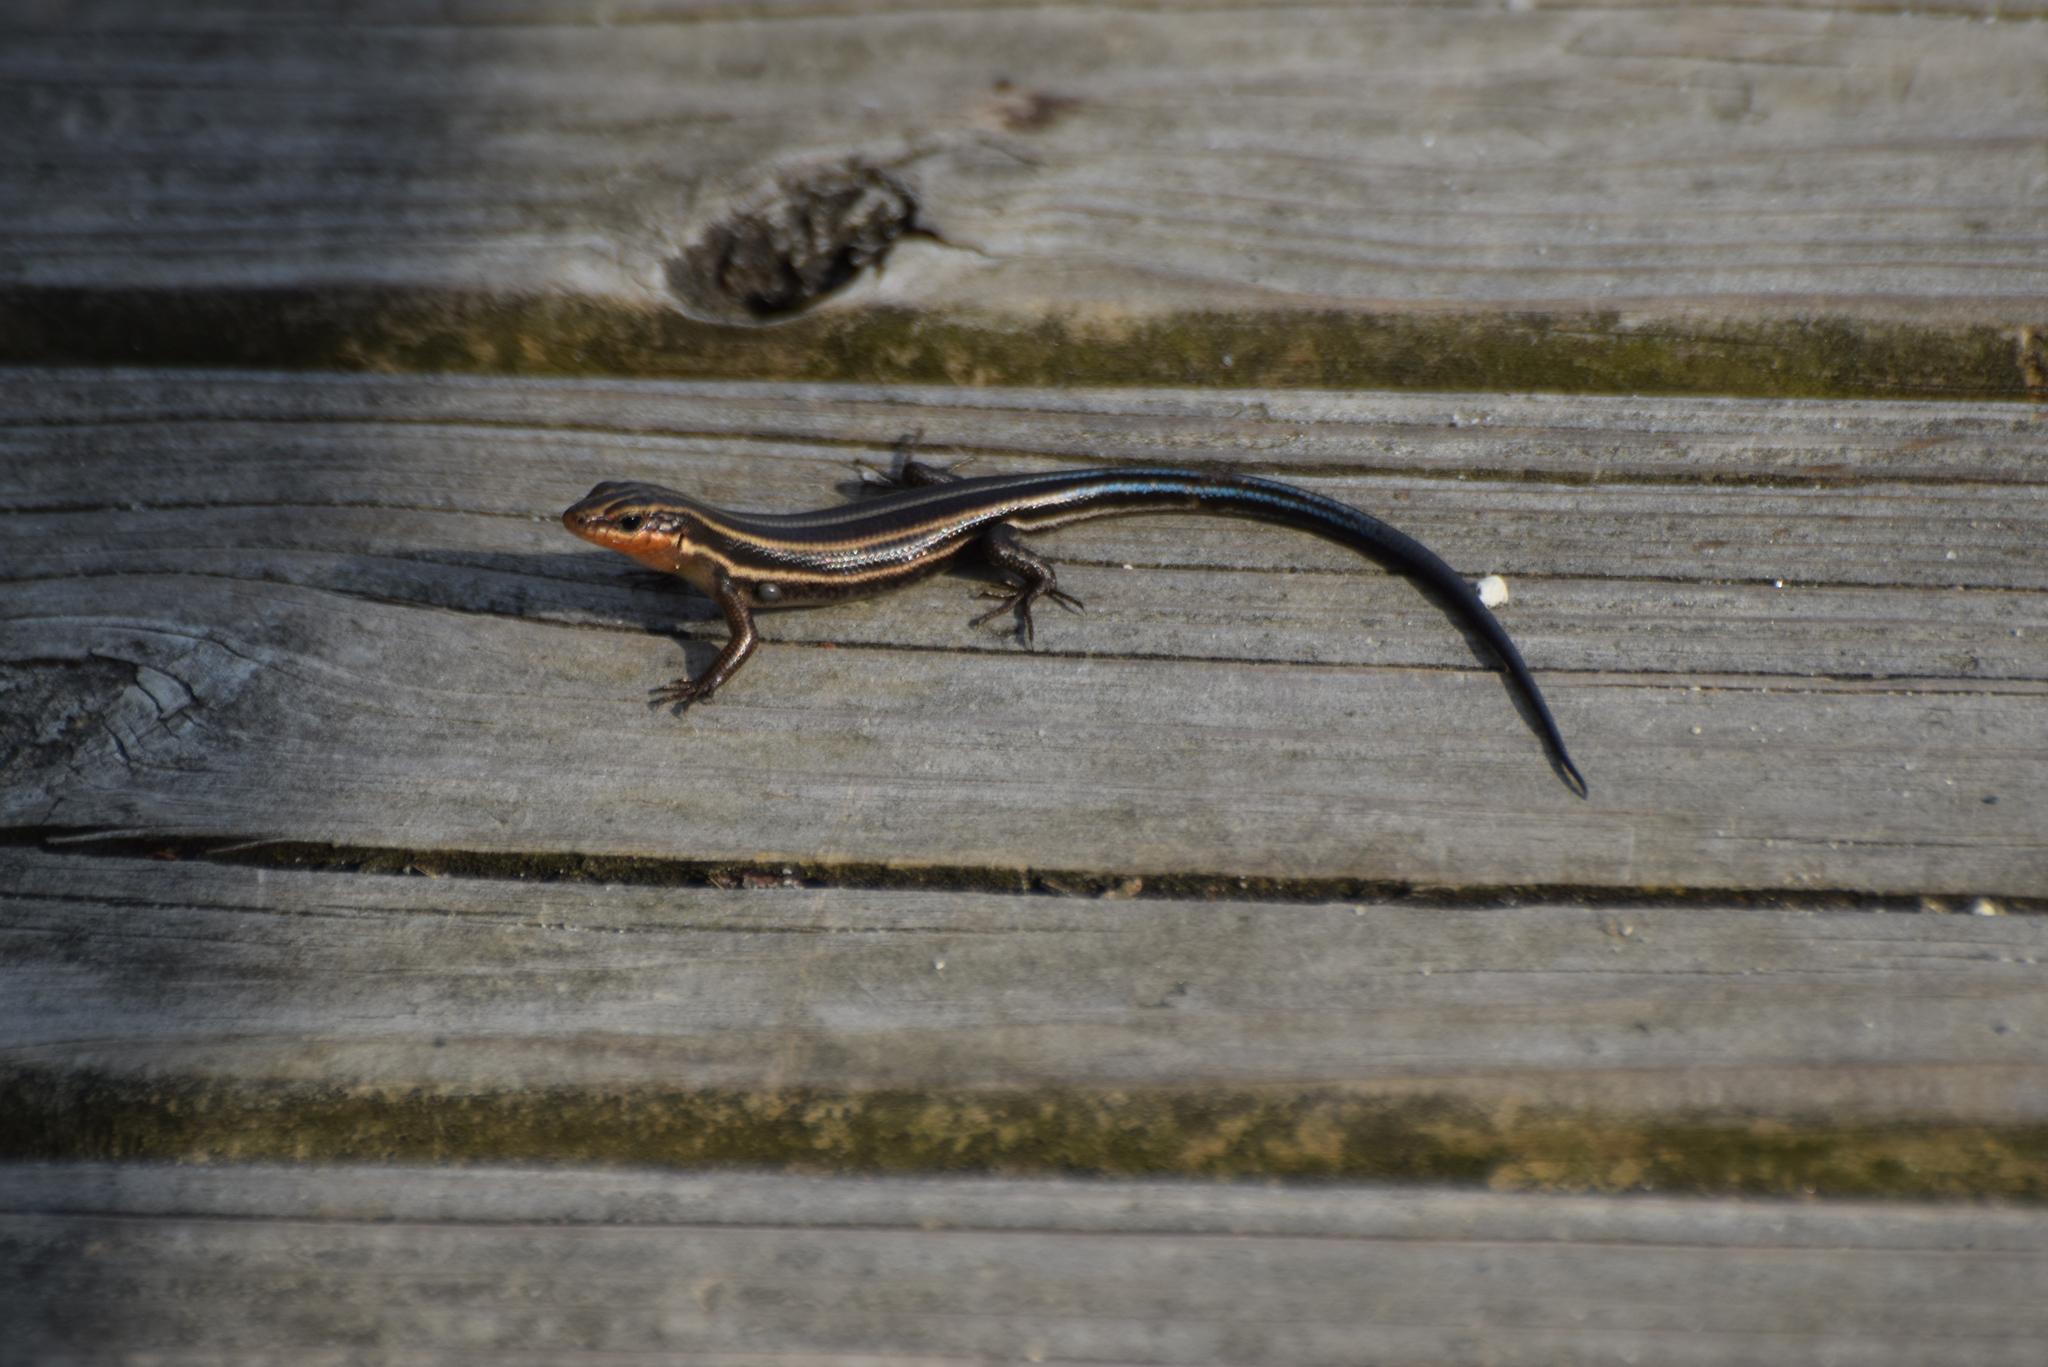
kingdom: Animalia
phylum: Chordata
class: Squamata
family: Scincidae
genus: Plestiodon
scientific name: Plestiodon fasciatus
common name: Five-lined skink
